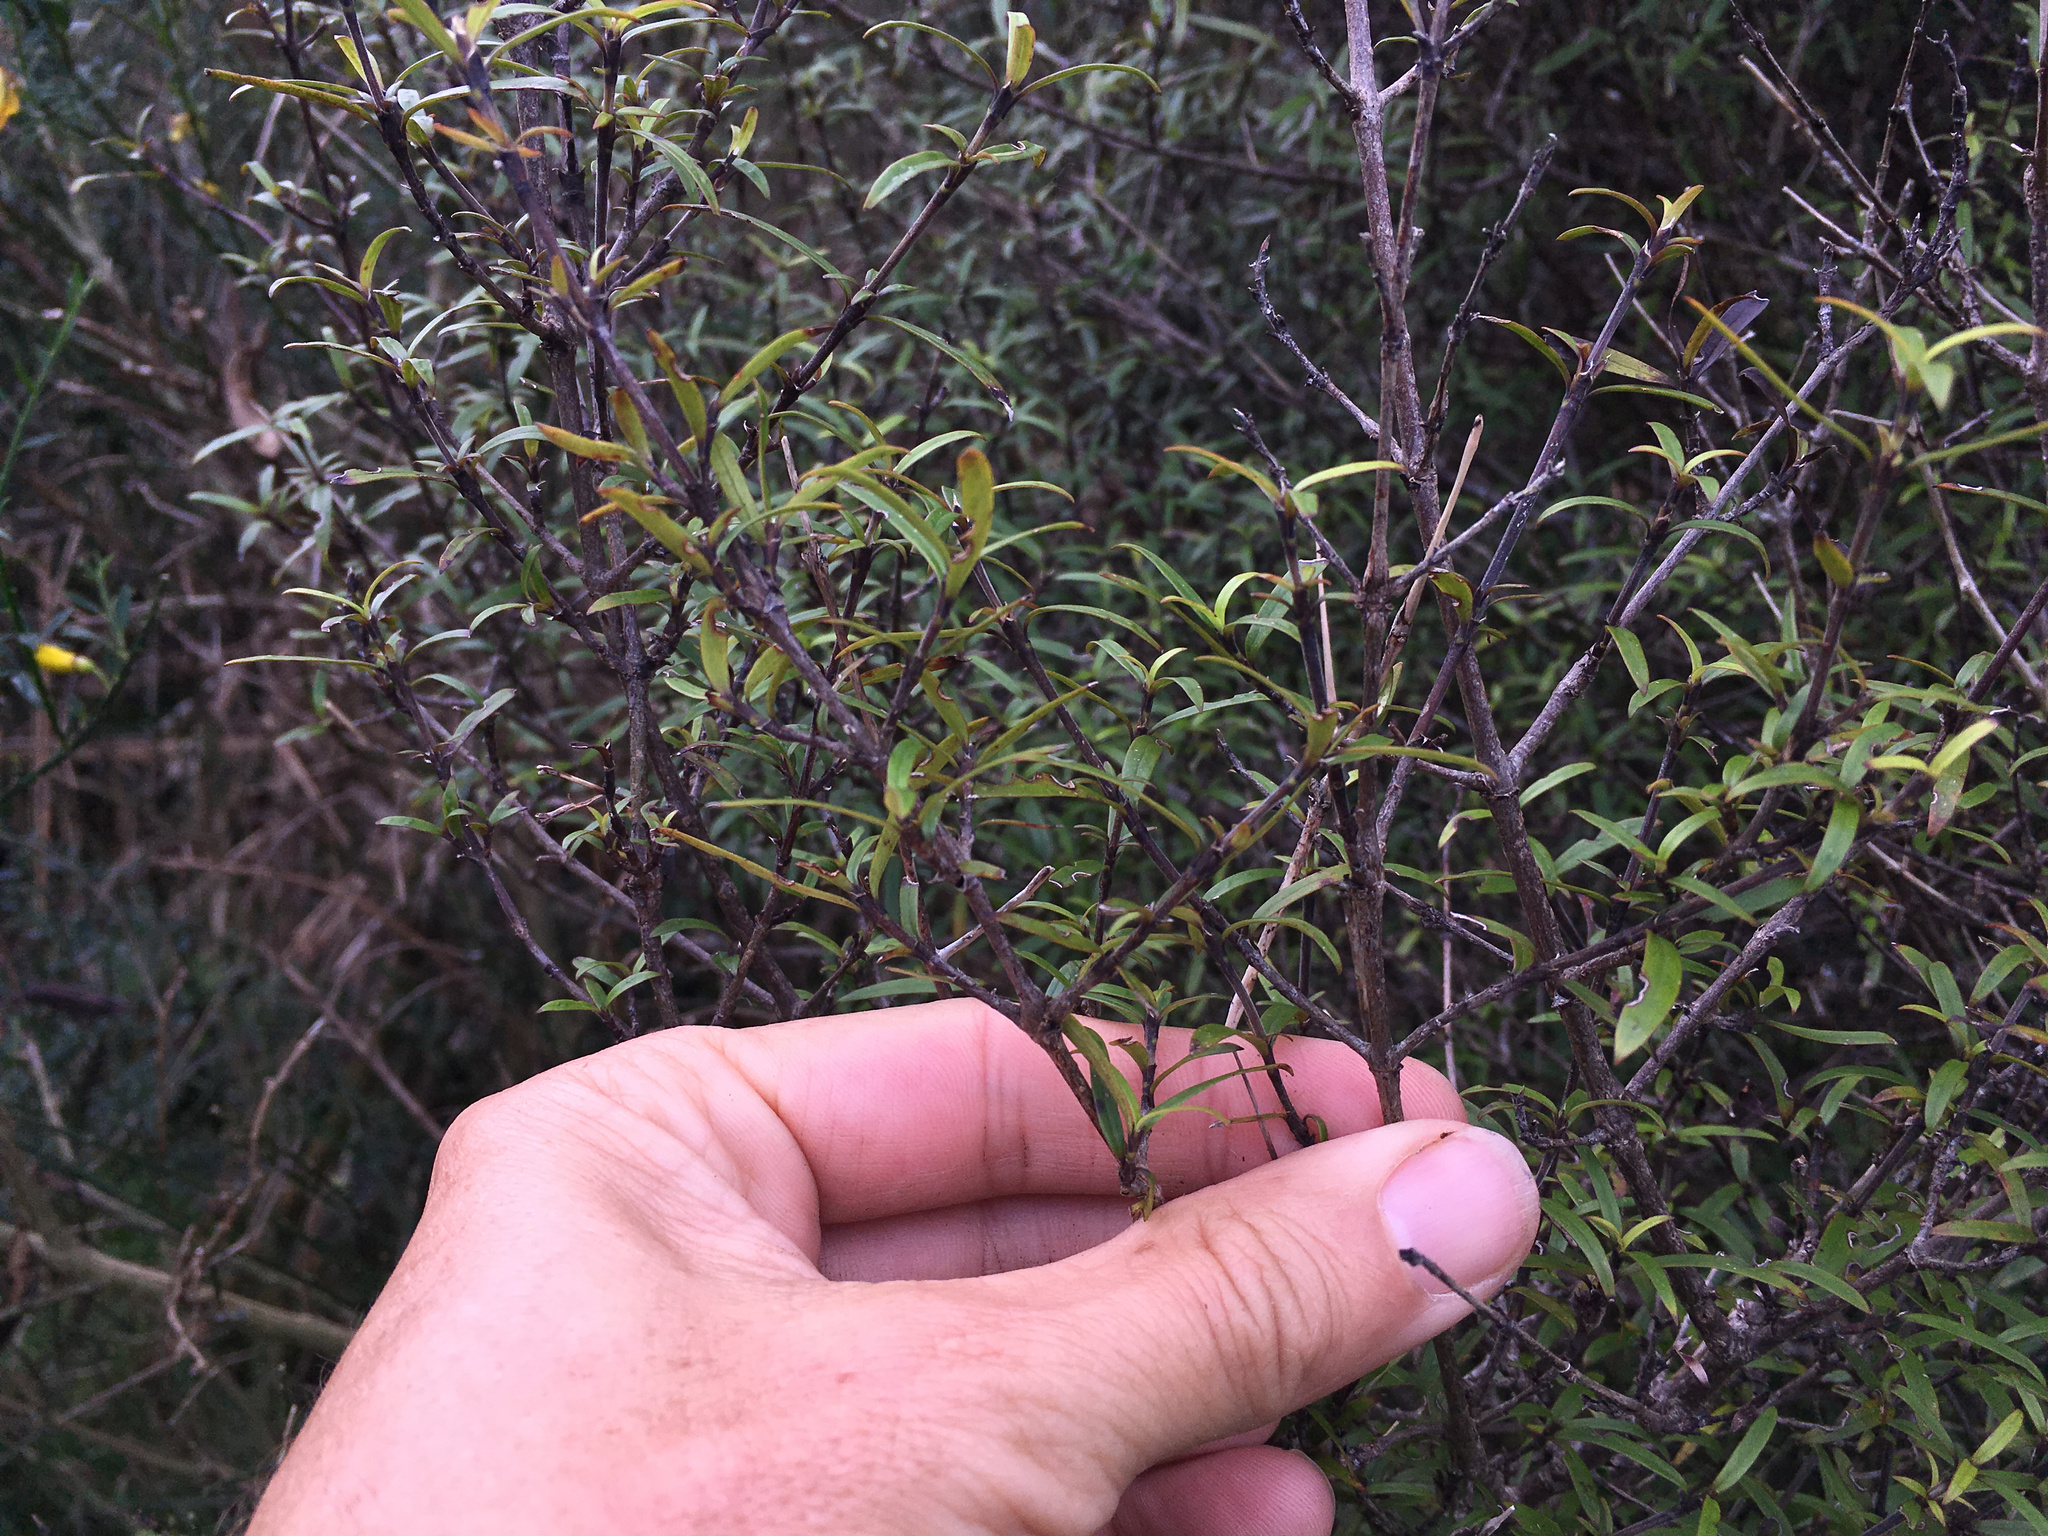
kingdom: Plantae
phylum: Tracheophyta
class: Magnoliopsida
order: Gentianales
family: Rubiaceae
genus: Coprosma
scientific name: Coprosma linariifolia
